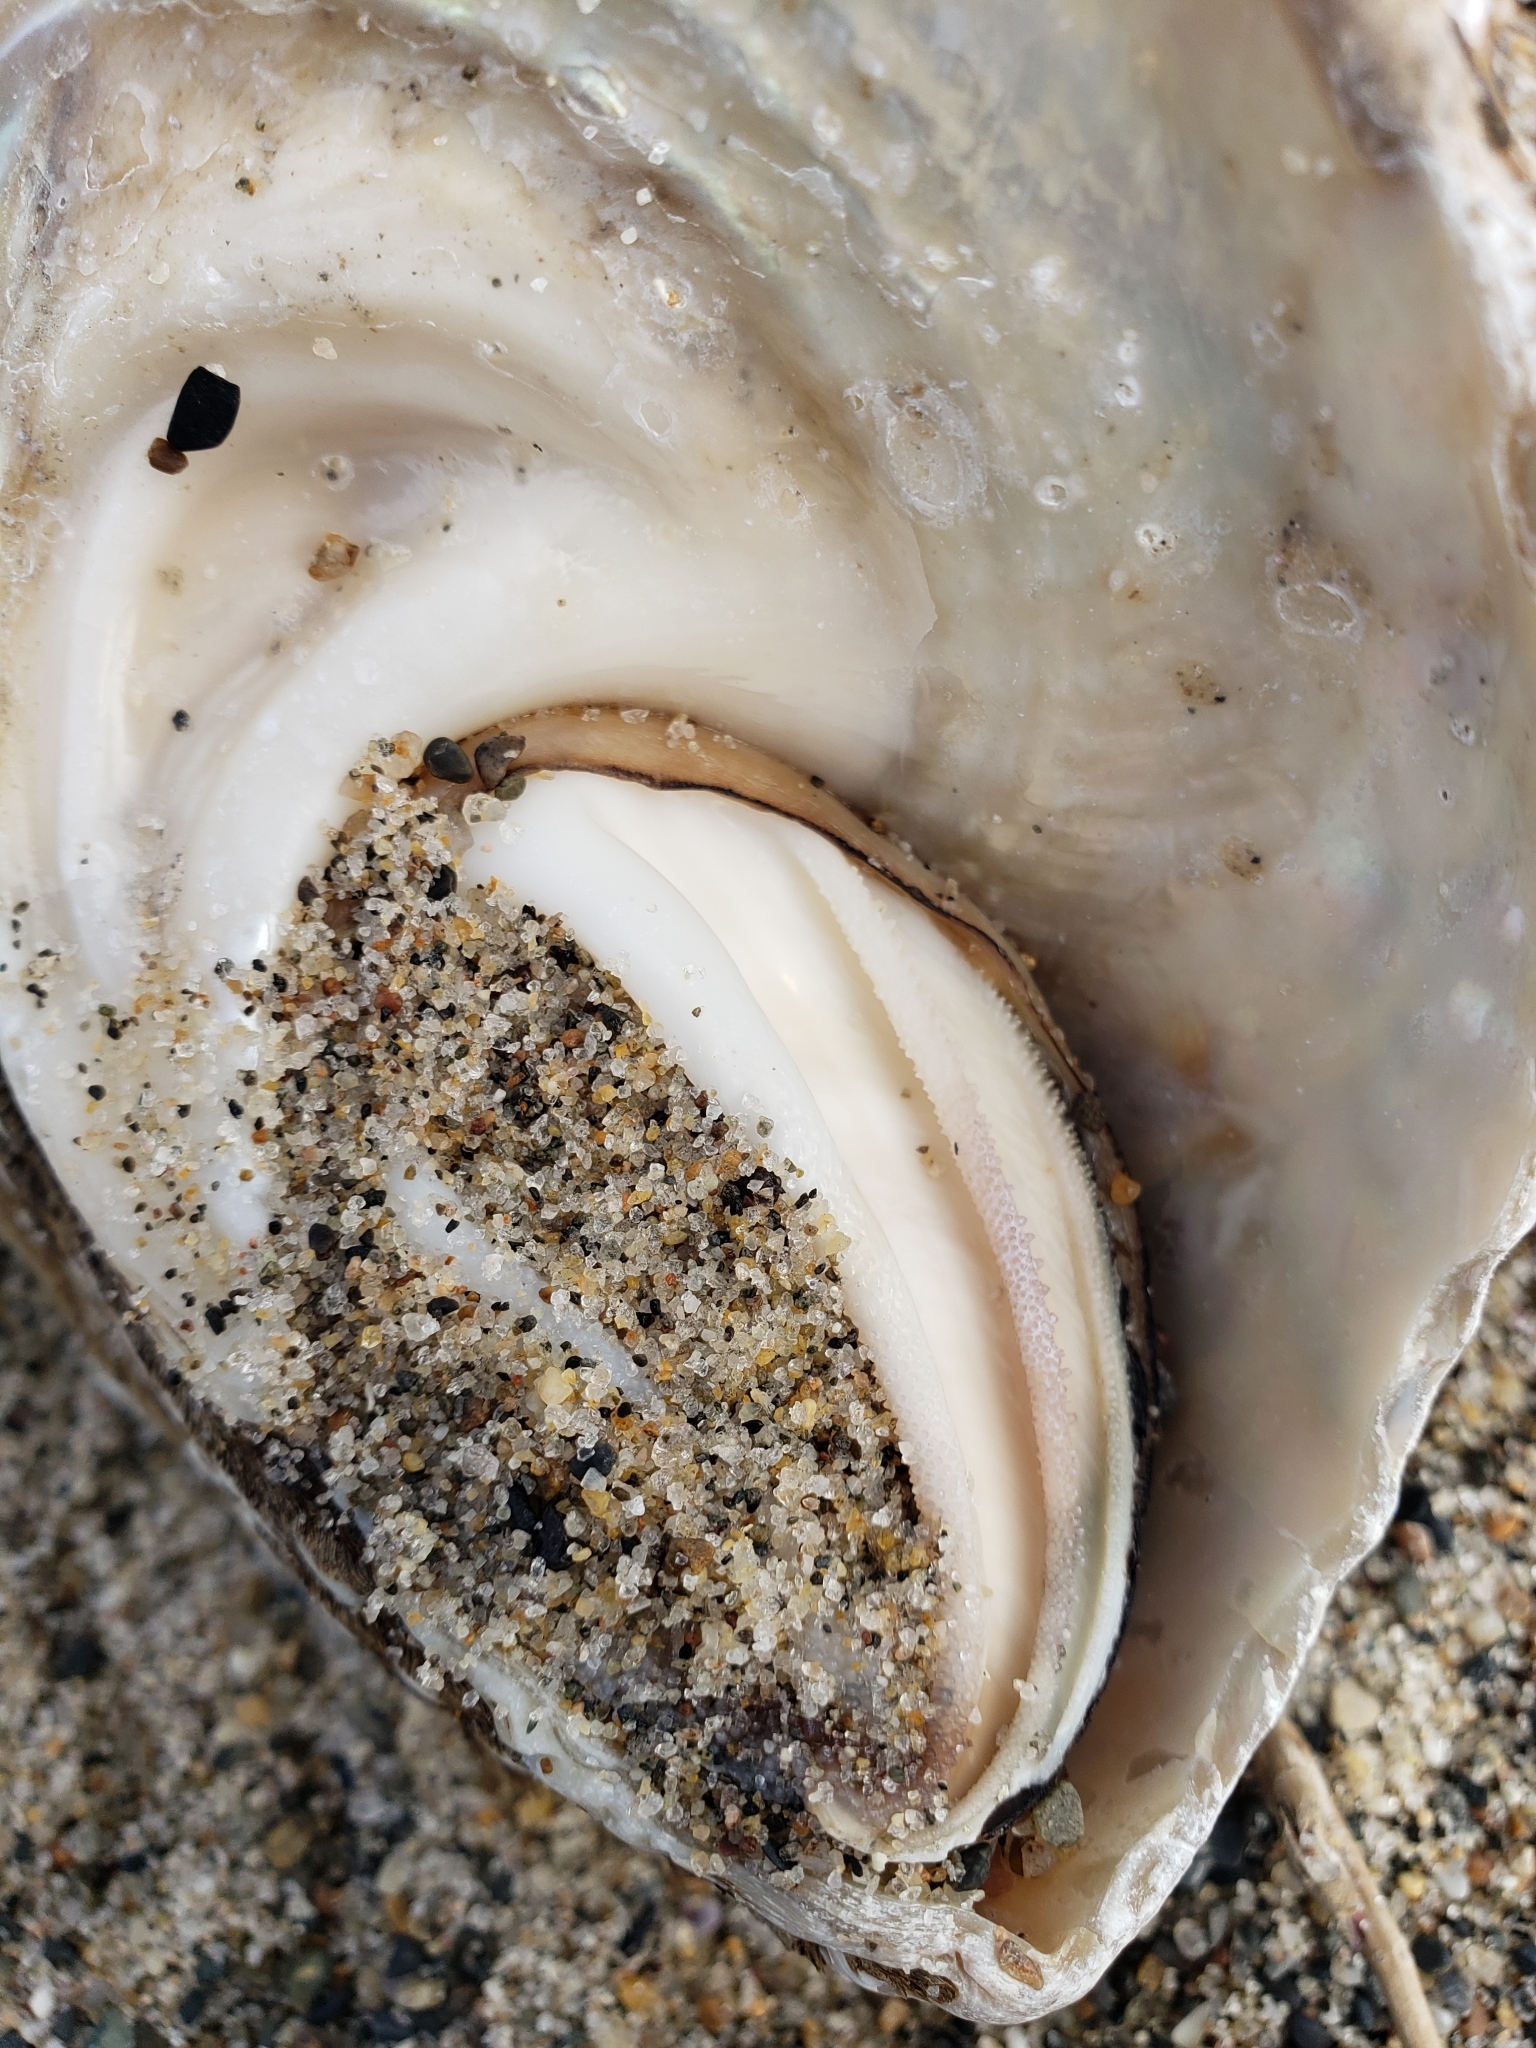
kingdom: Animalia
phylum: Mollusca
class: Gastropoda
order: Trochida
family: Turbinidae
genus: Megastraea
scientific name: Megastraea undosa
